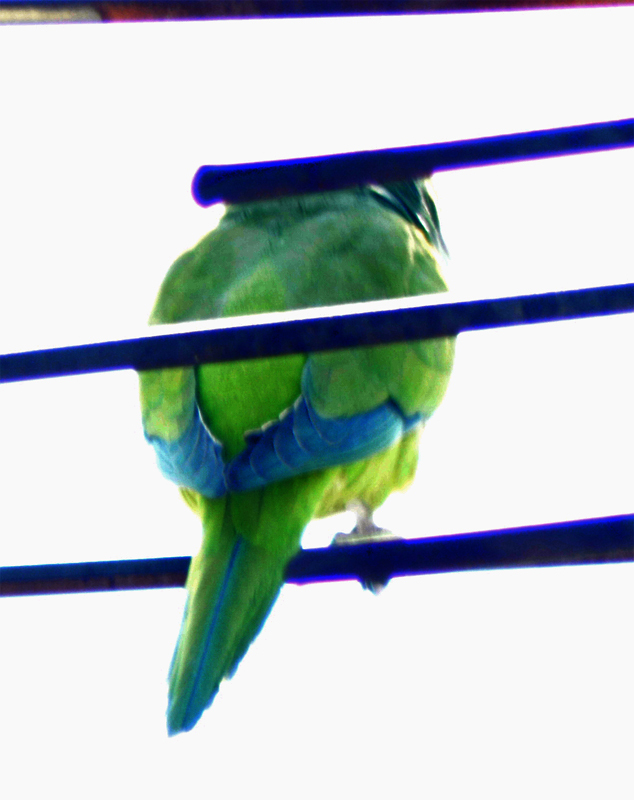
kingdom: Animalia
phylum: Chordata
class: Aves
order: Psittaciformes
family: Psittacidae
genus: Myiopsitta
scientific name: Myiopsitta monachus
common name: Monk parakeet
